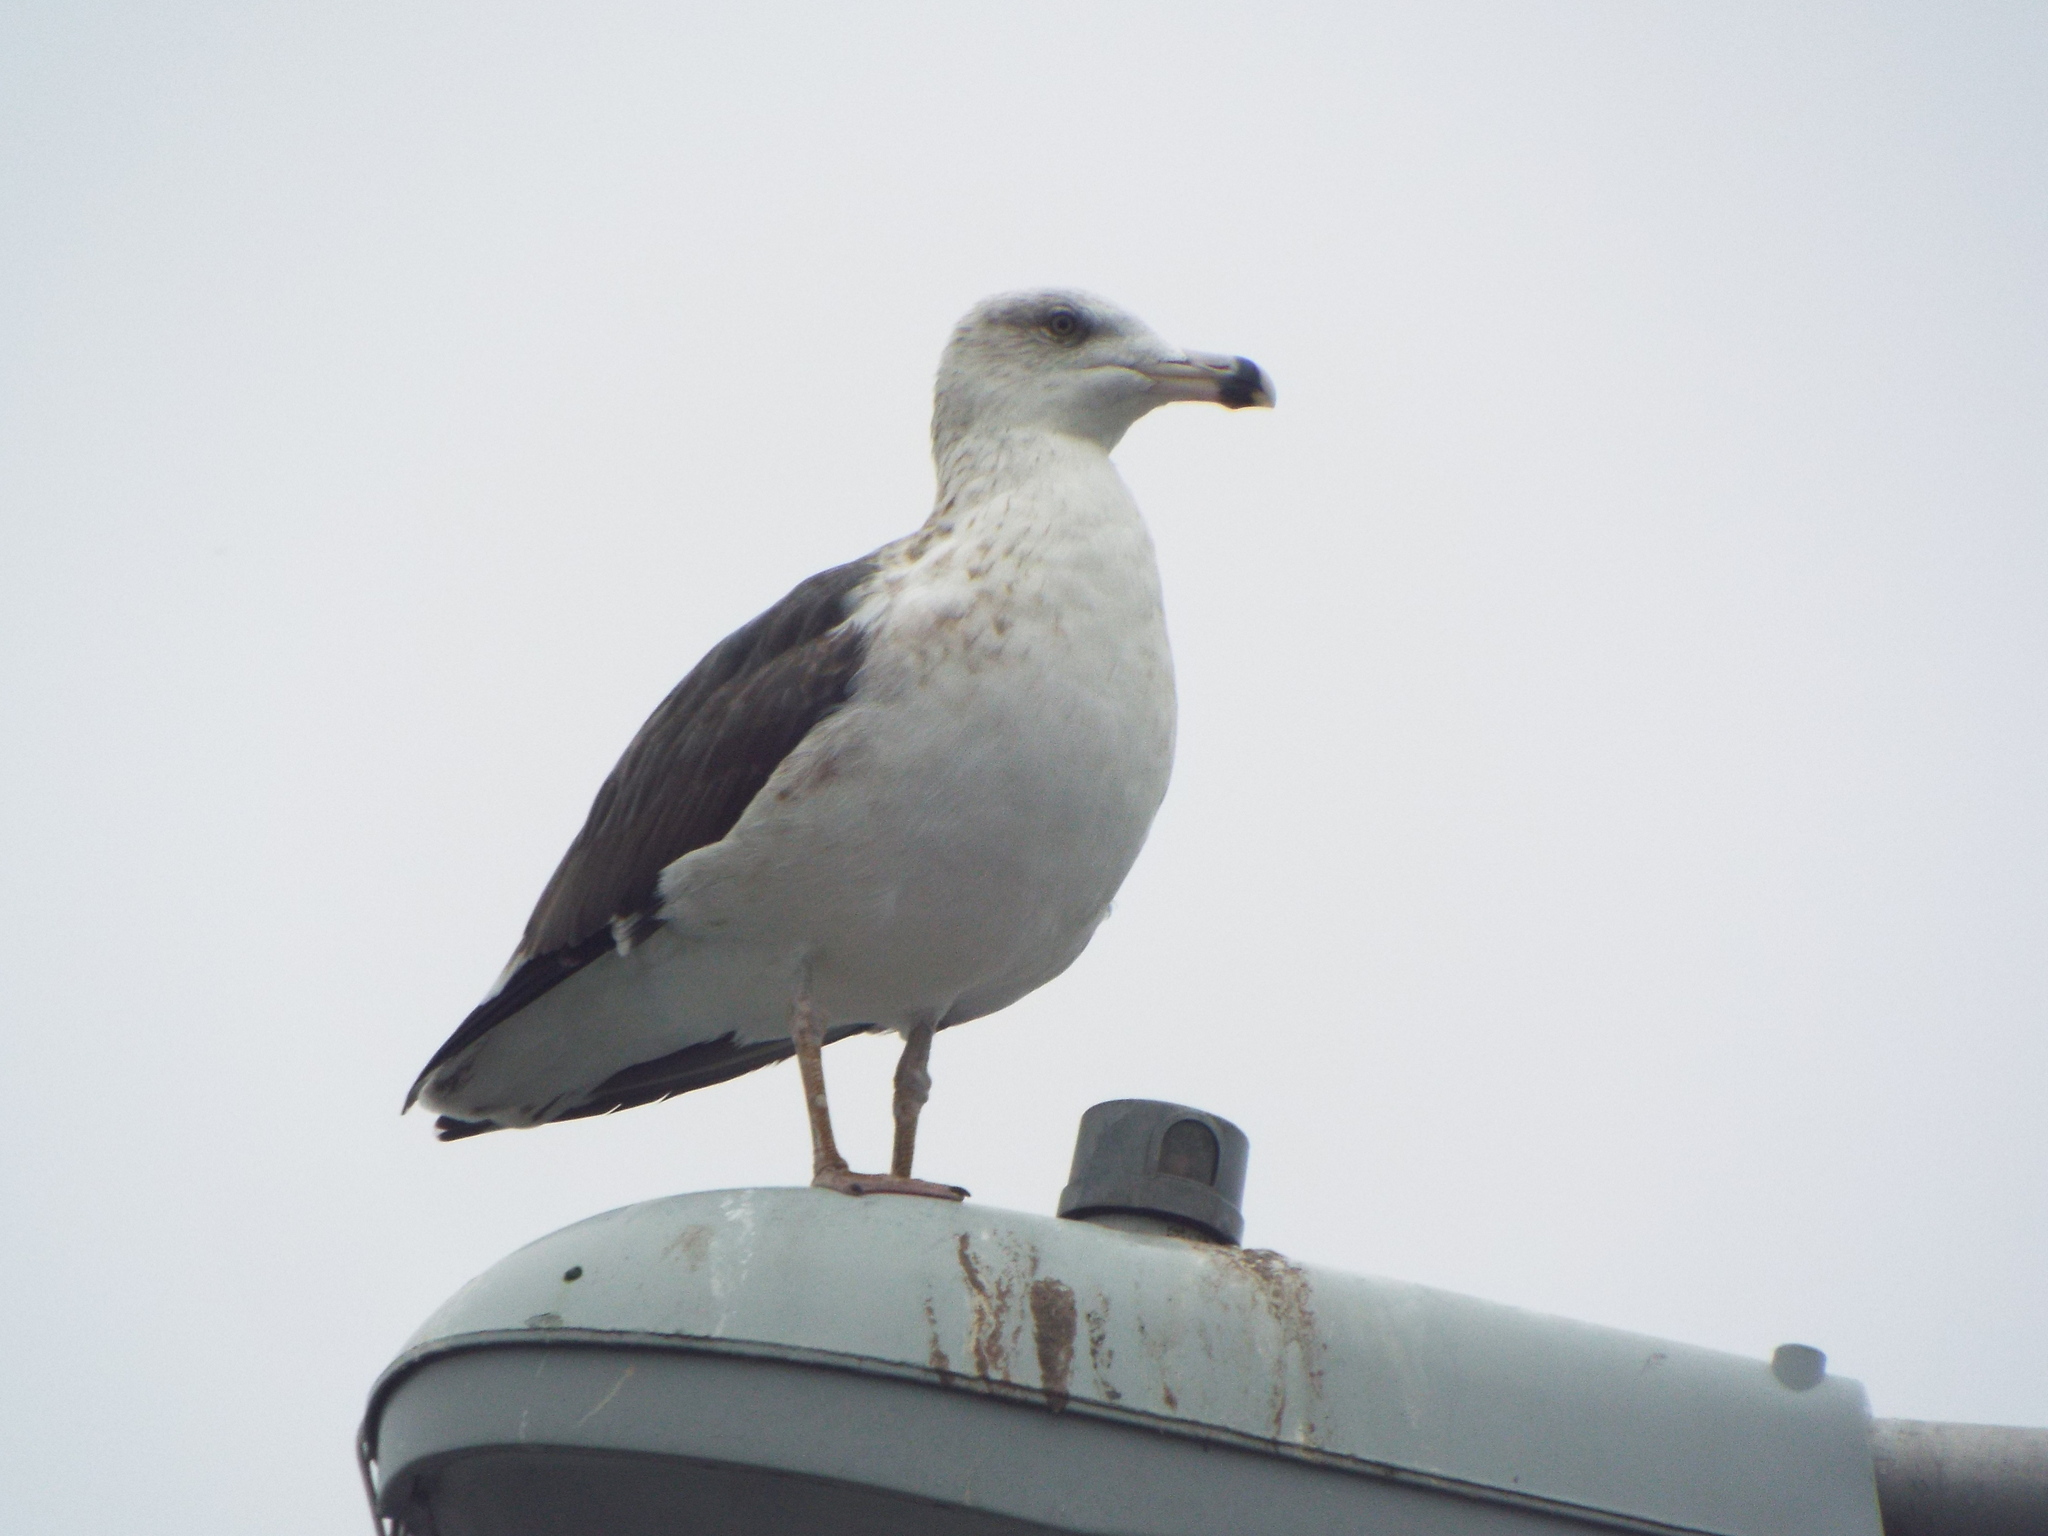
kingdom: Animalia
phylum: Chordata
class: Aves
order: Charadriiformes
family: Laridae
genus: Larus
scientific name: Larus marinus
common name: Great black-backed gull
